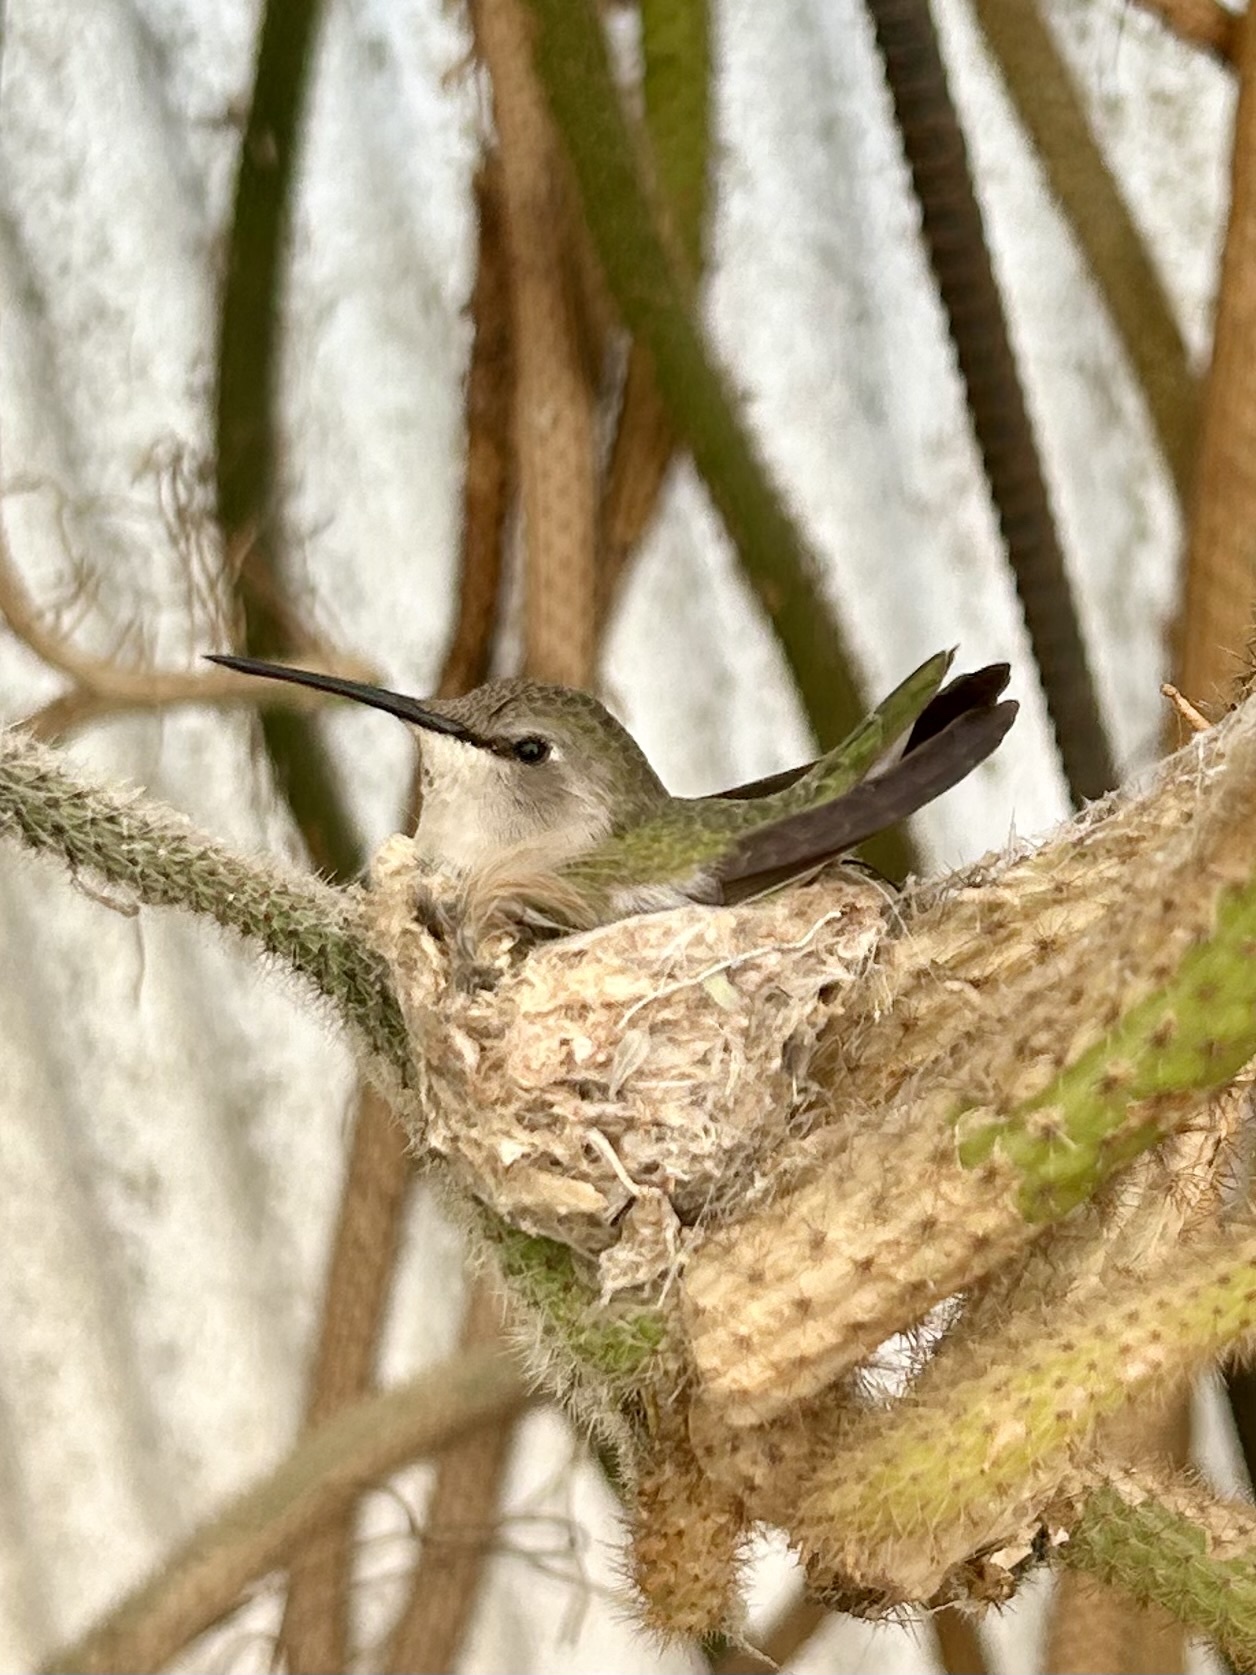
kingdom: Animalia
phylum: Chordata
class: Aves
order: Apodiformes
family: Trochilidae
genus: Calypte
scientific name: Calypte costae
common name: Costa's hummingbird
